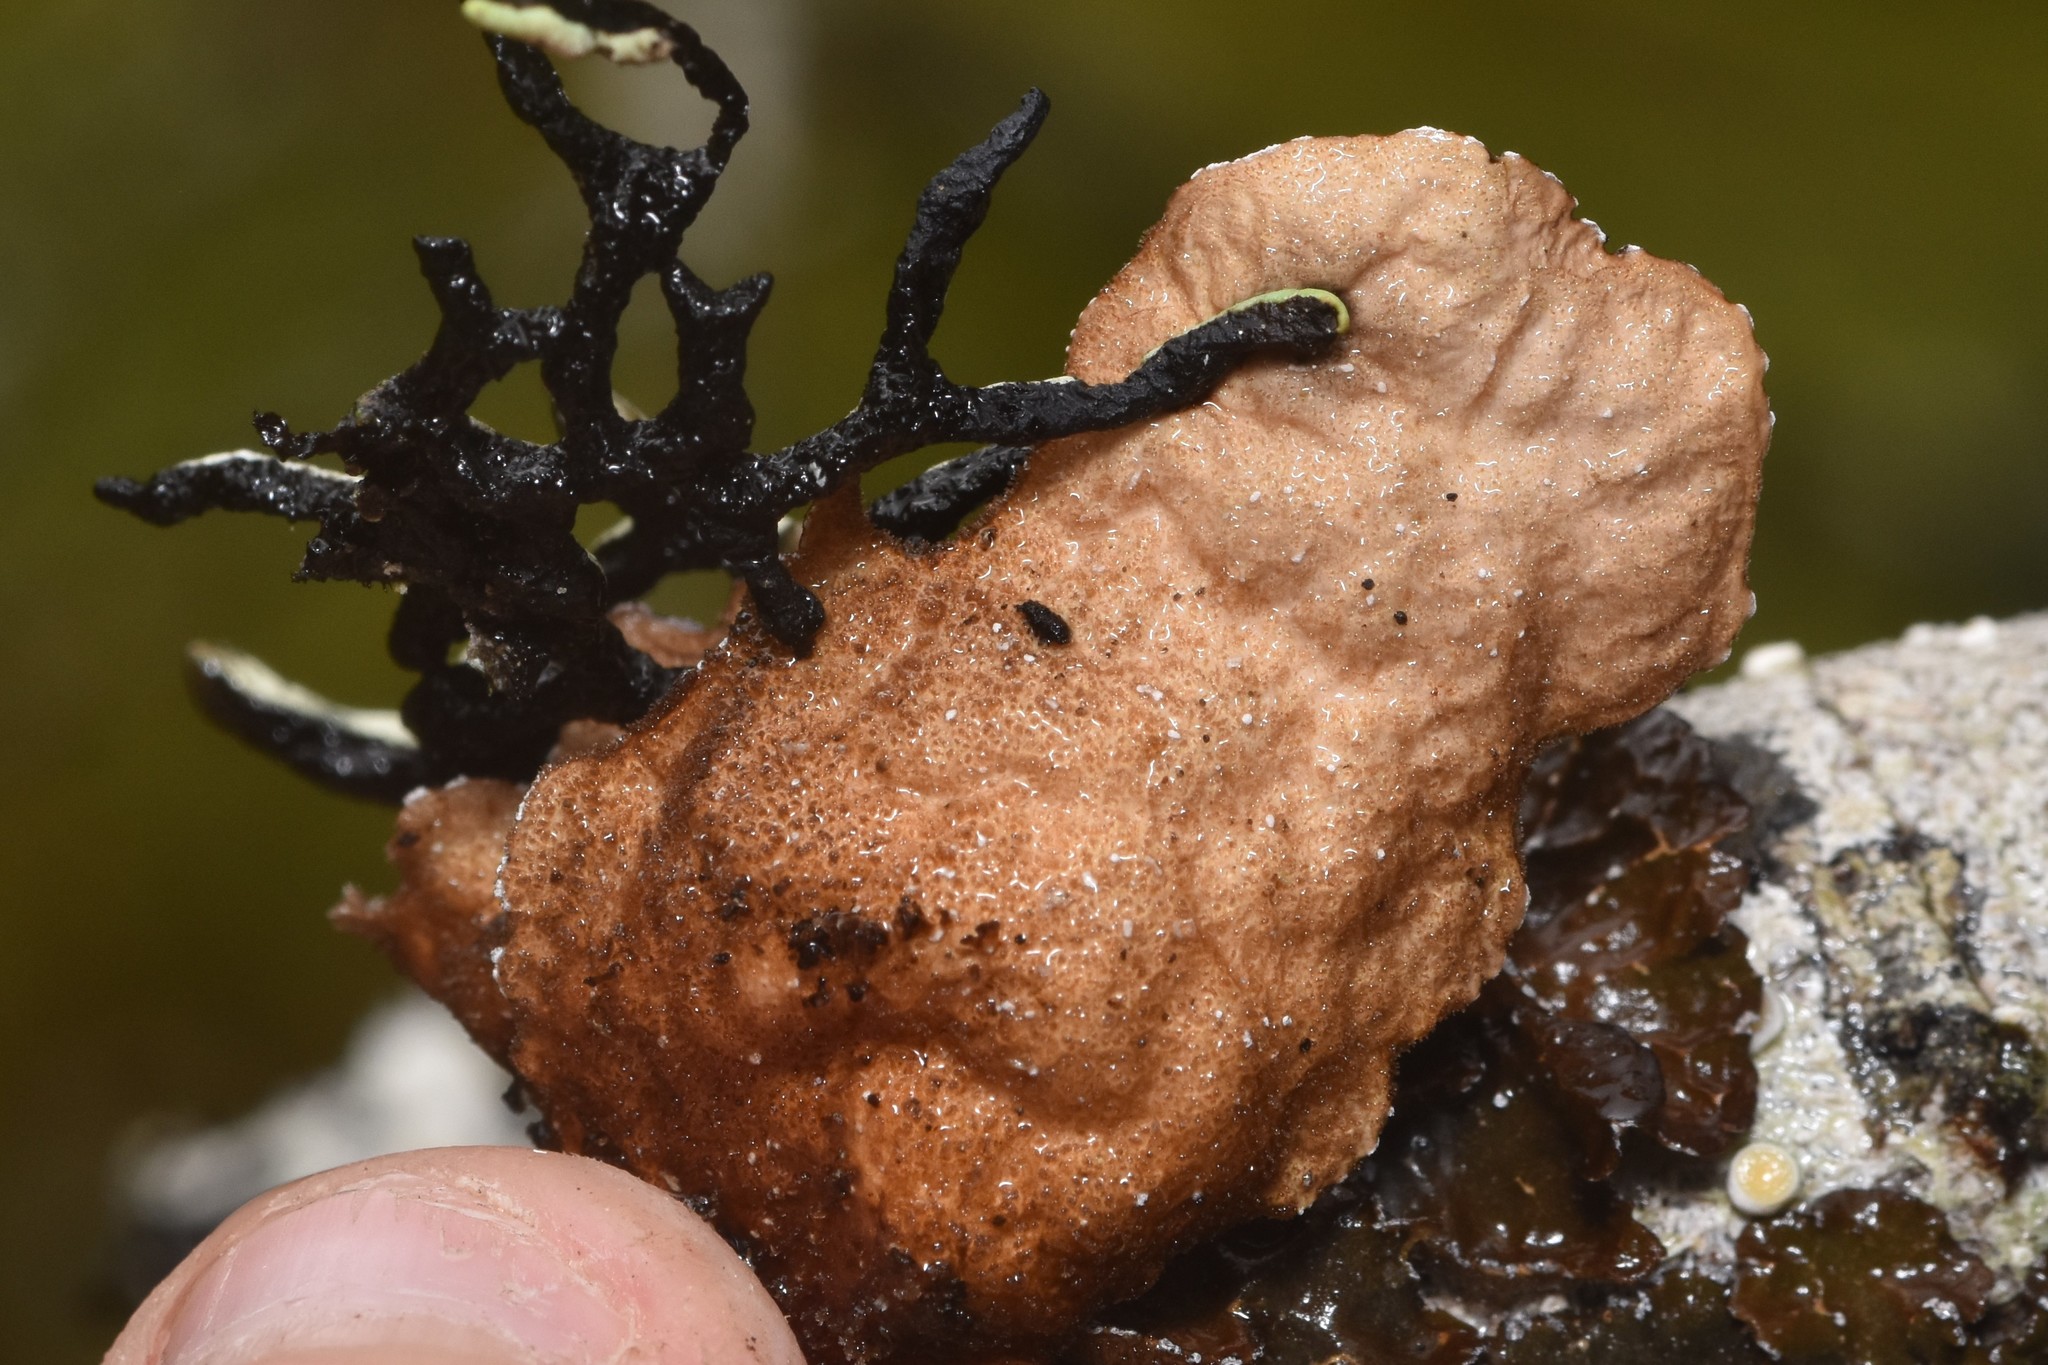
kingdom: Fungi
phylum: Ascomycota
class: Lecanoromycetes
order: Peltigerales
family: Lobariaceae
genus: Lobaria
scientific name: Lobaria anomala
